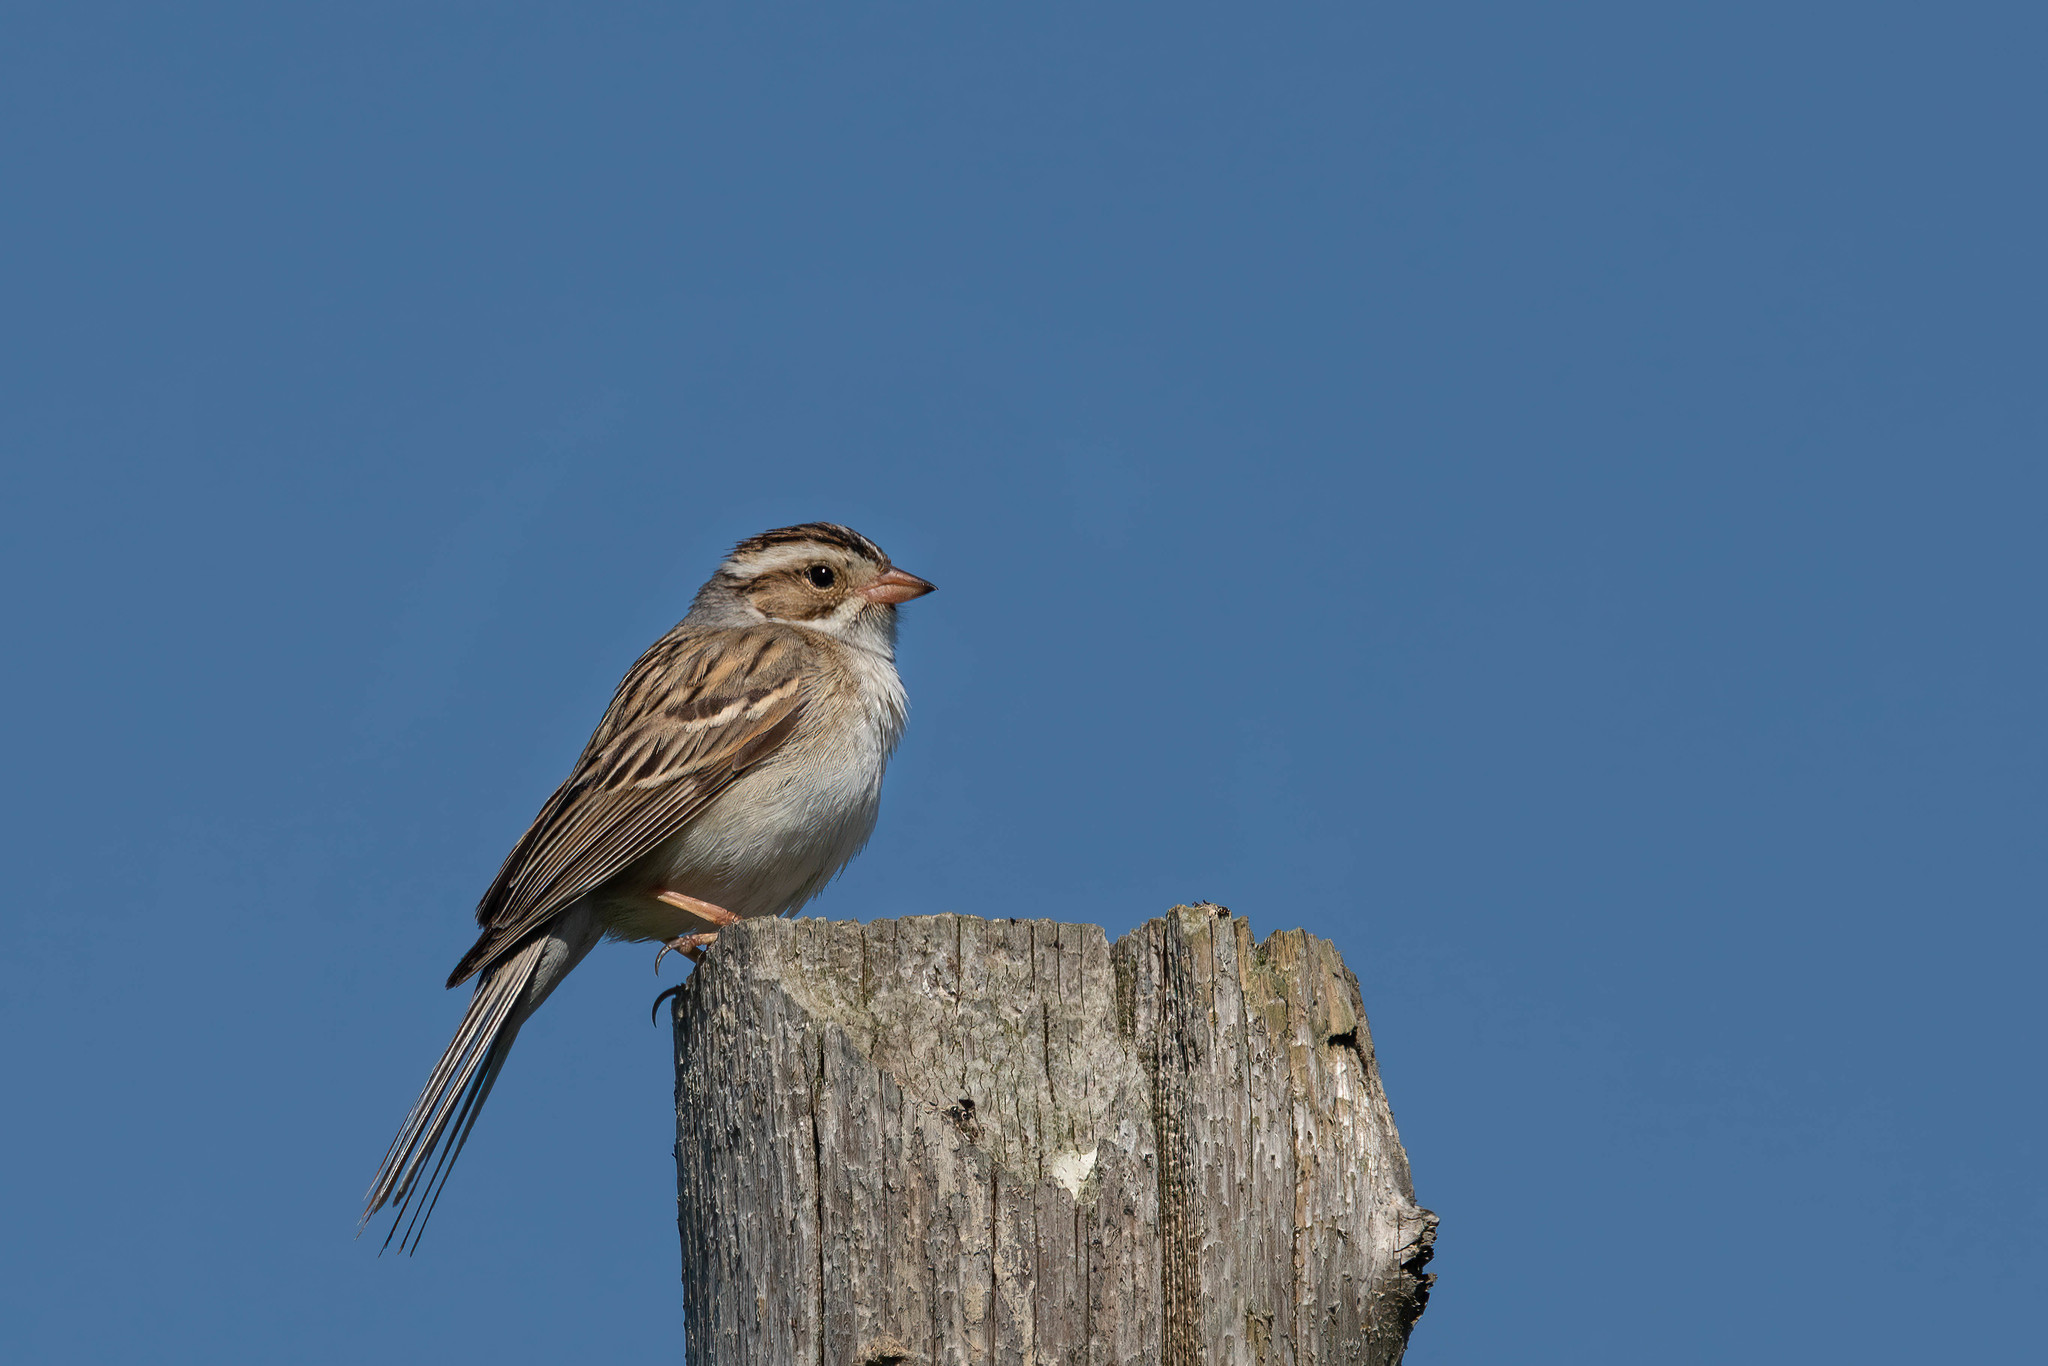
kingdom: Animalia
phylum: Chordata
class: Aves
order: Passeriformes
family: Passerellidae
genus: Spizella
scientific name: Spizella pallida
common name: Clay-colored sparrow
